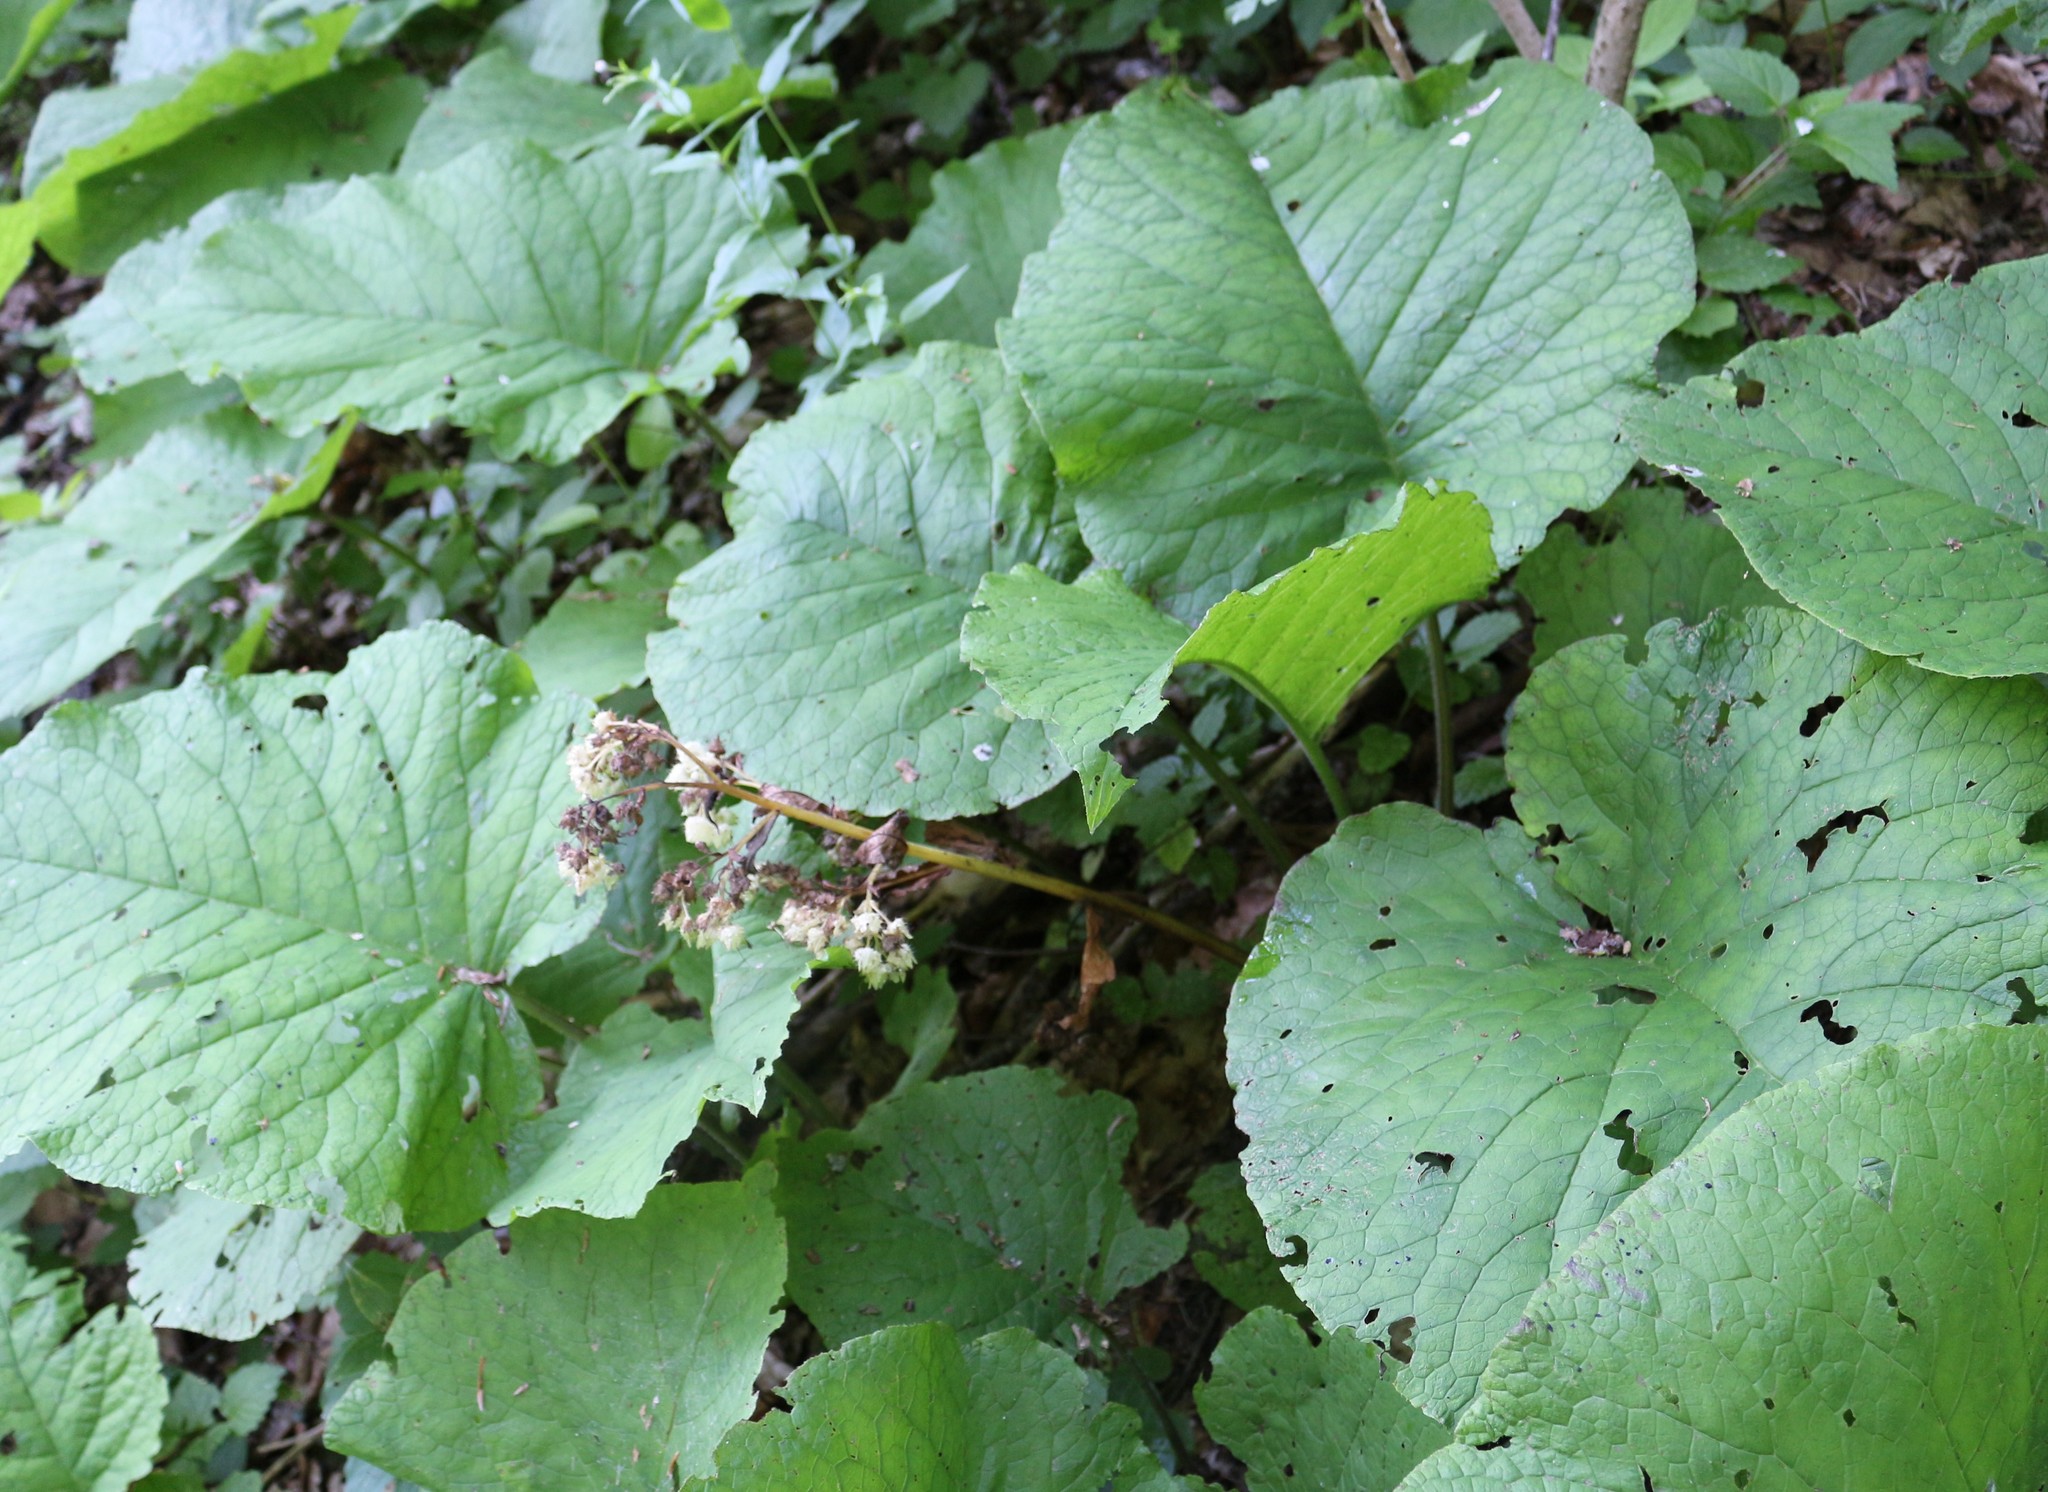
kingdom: Plantae
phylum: Tracheophyta
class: Magnoliopsida
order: Boraginales
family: Boraginaceae
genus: Trachystemon
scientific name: Trachystemon orientale
